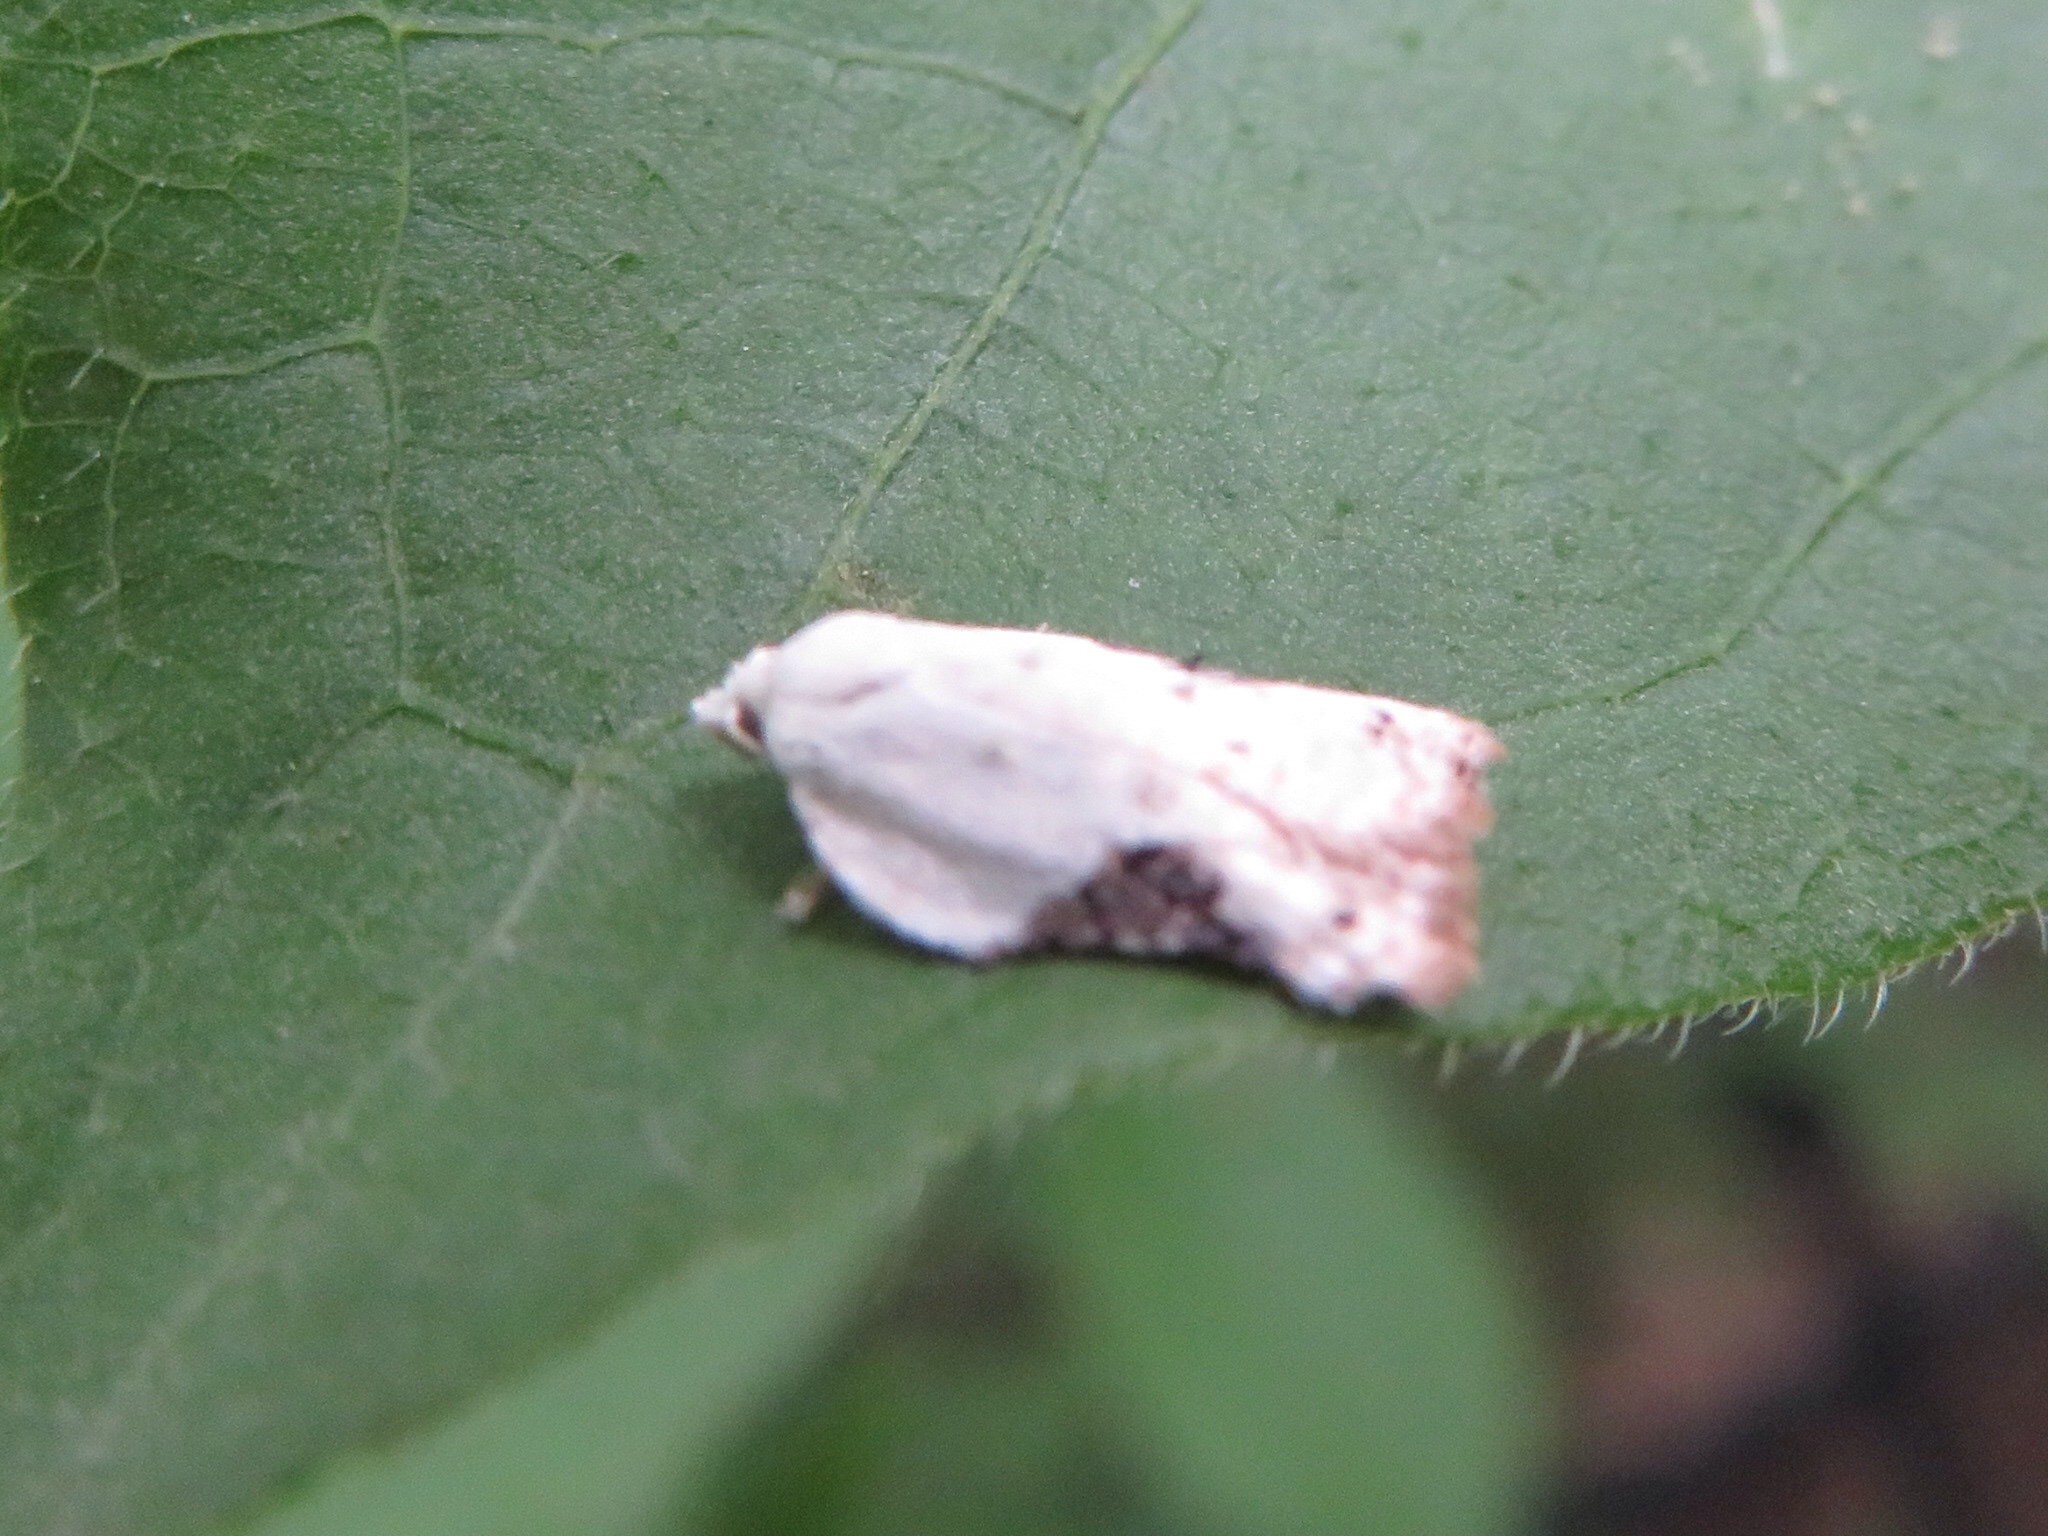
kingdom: Animalia
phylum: Arthropoda
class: Insecta
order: Lepidoptera
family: Tortricidae
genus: Acleris
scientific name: Acleris subnivana
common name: Bent-winged acleris moth
